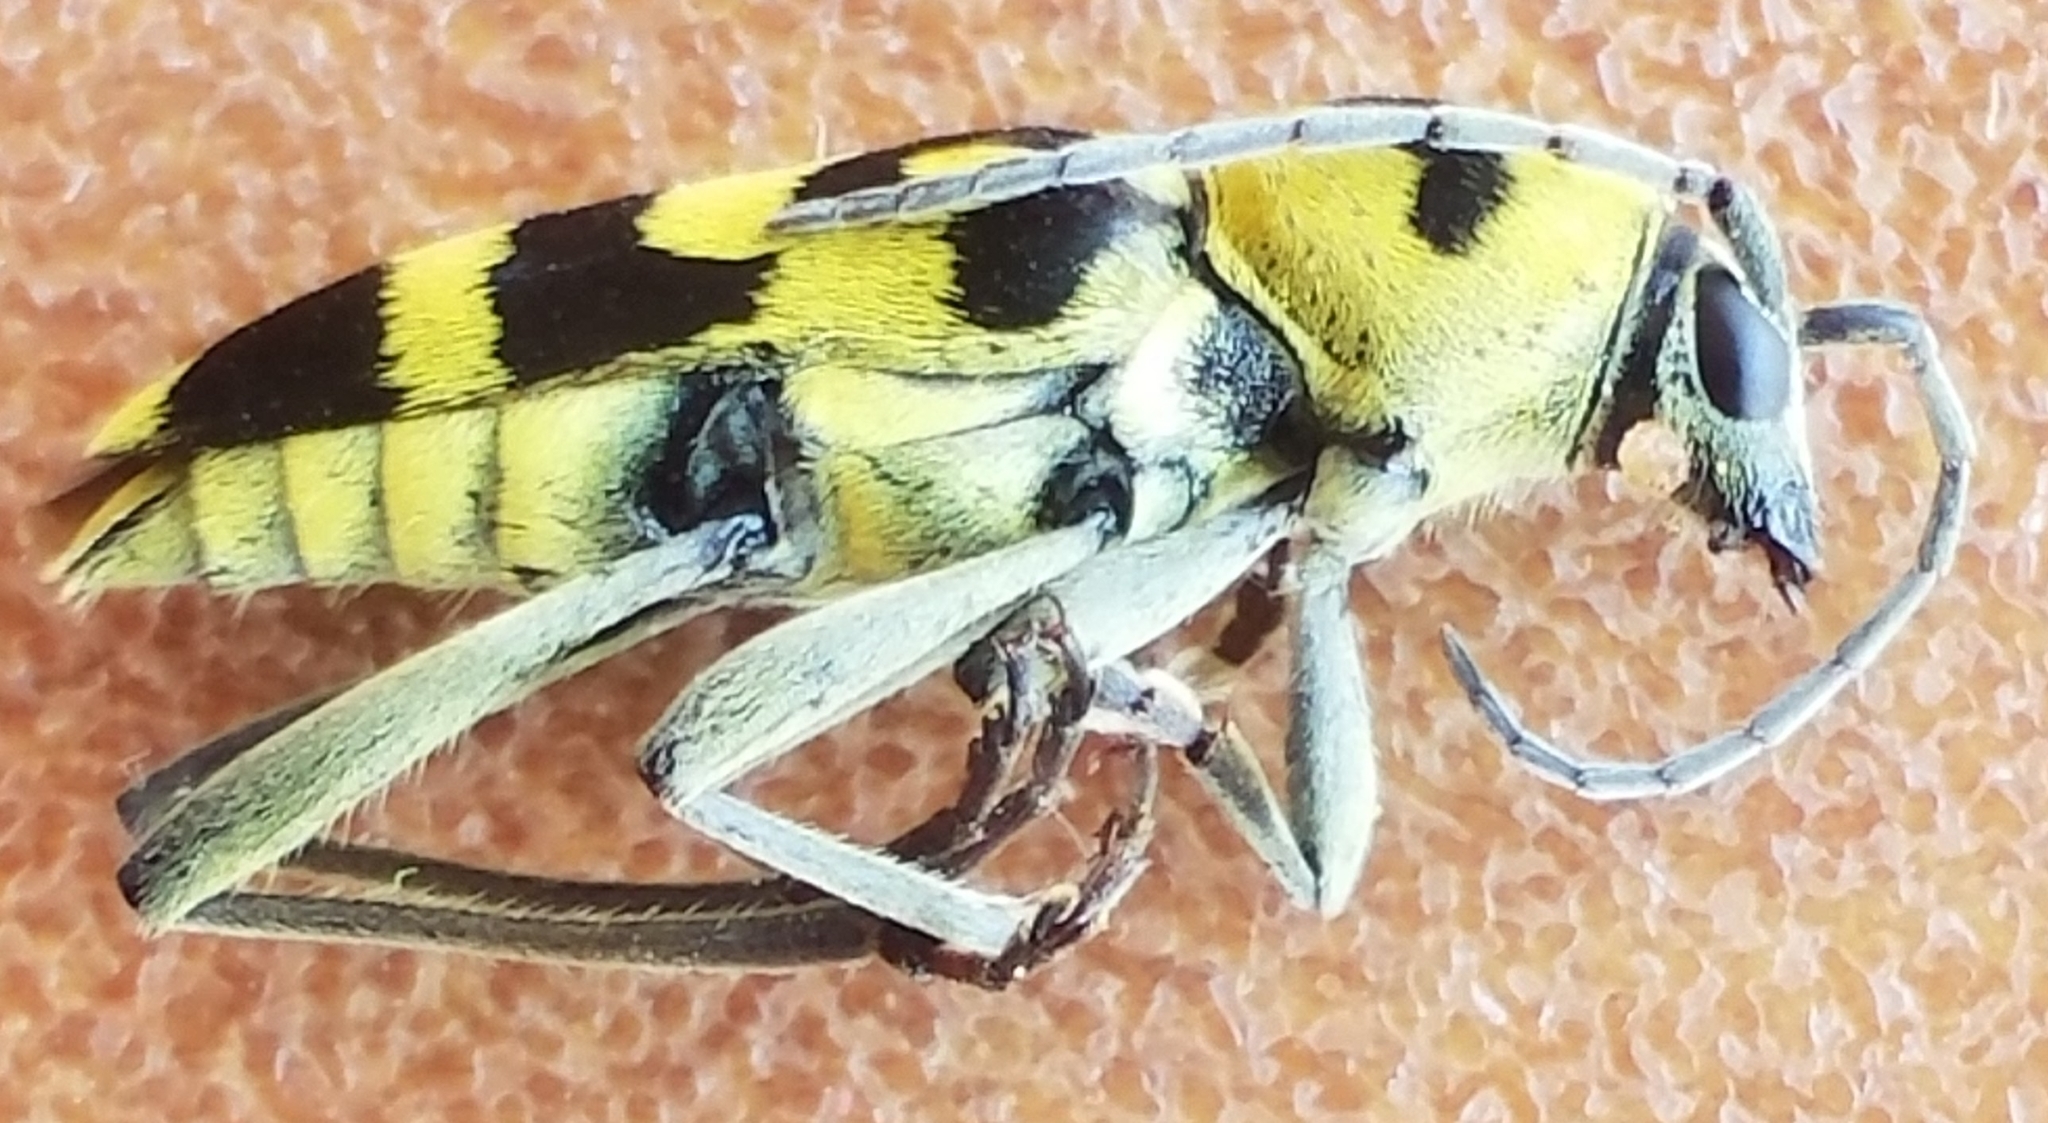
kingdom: Animalia
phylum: Arthropoda
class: Insecta
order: Coleoptera
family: Cerambycidae
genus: Chlorophorus
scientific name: Chlorophorus varius
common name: Grape wood borer
